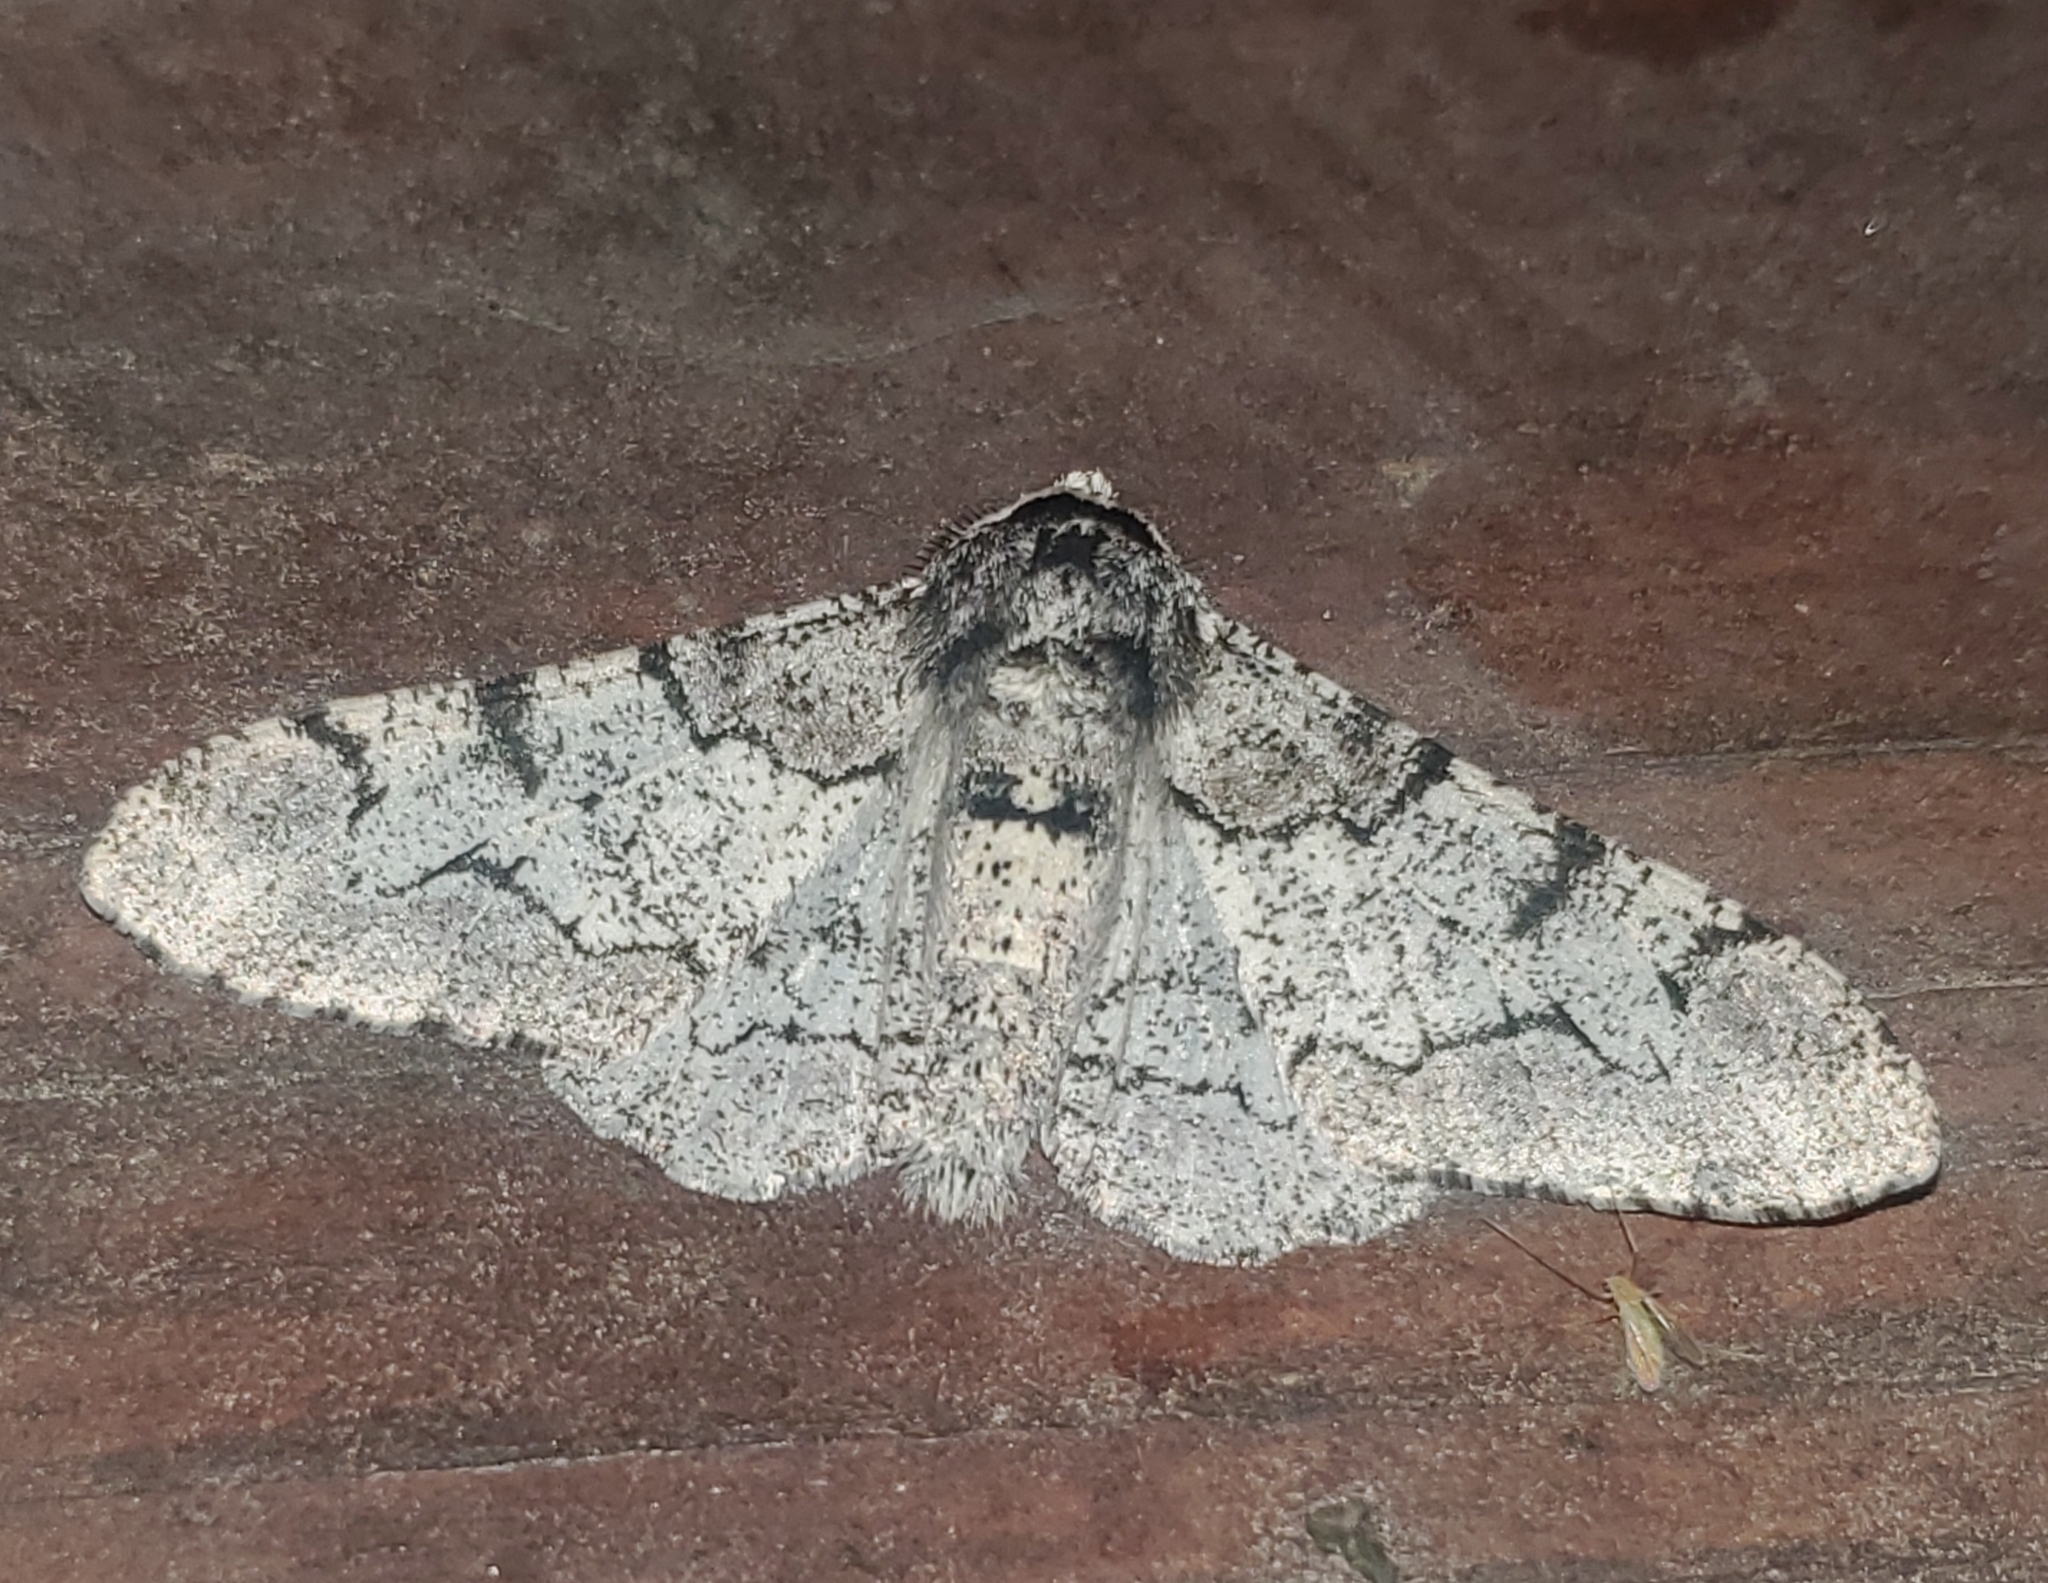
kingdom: Animalia
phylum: Arthropoda
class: Insecta
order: Lepidoptera
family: Geometridae
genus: Biston
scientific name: Biston betularia
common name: Peppered moth
